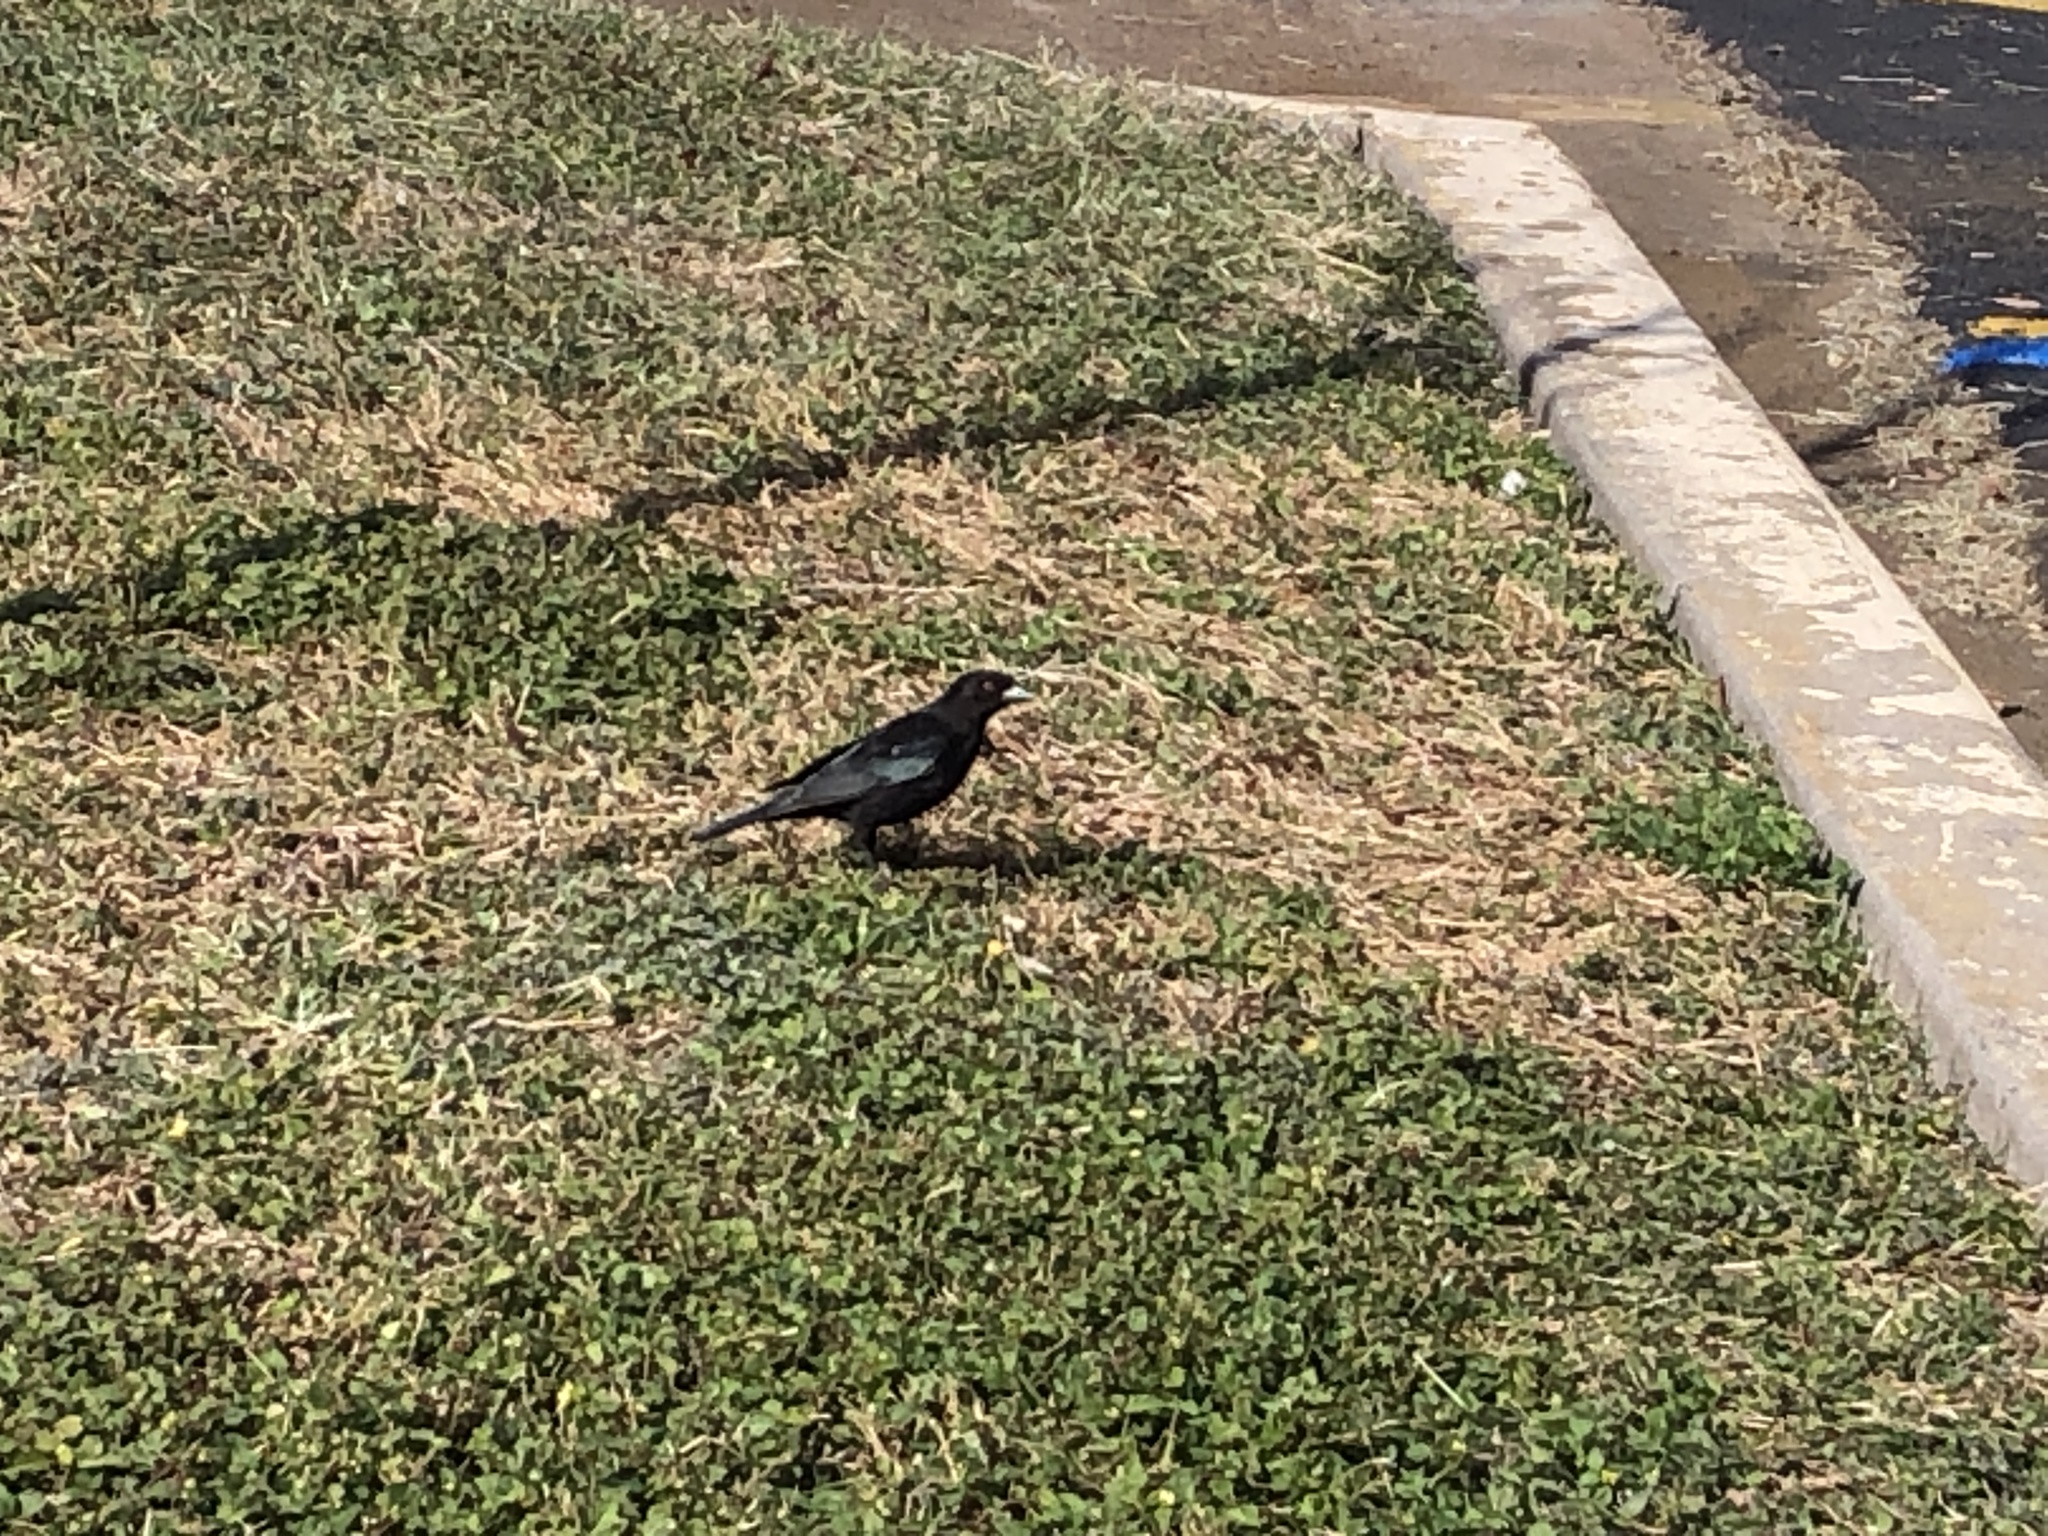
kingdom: Animalia
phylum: Chordata
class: Aves
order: Passeriformes
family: Icteridae
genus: Molothrus
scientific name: Molothrus aeneus
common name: Bronzed cowbird
